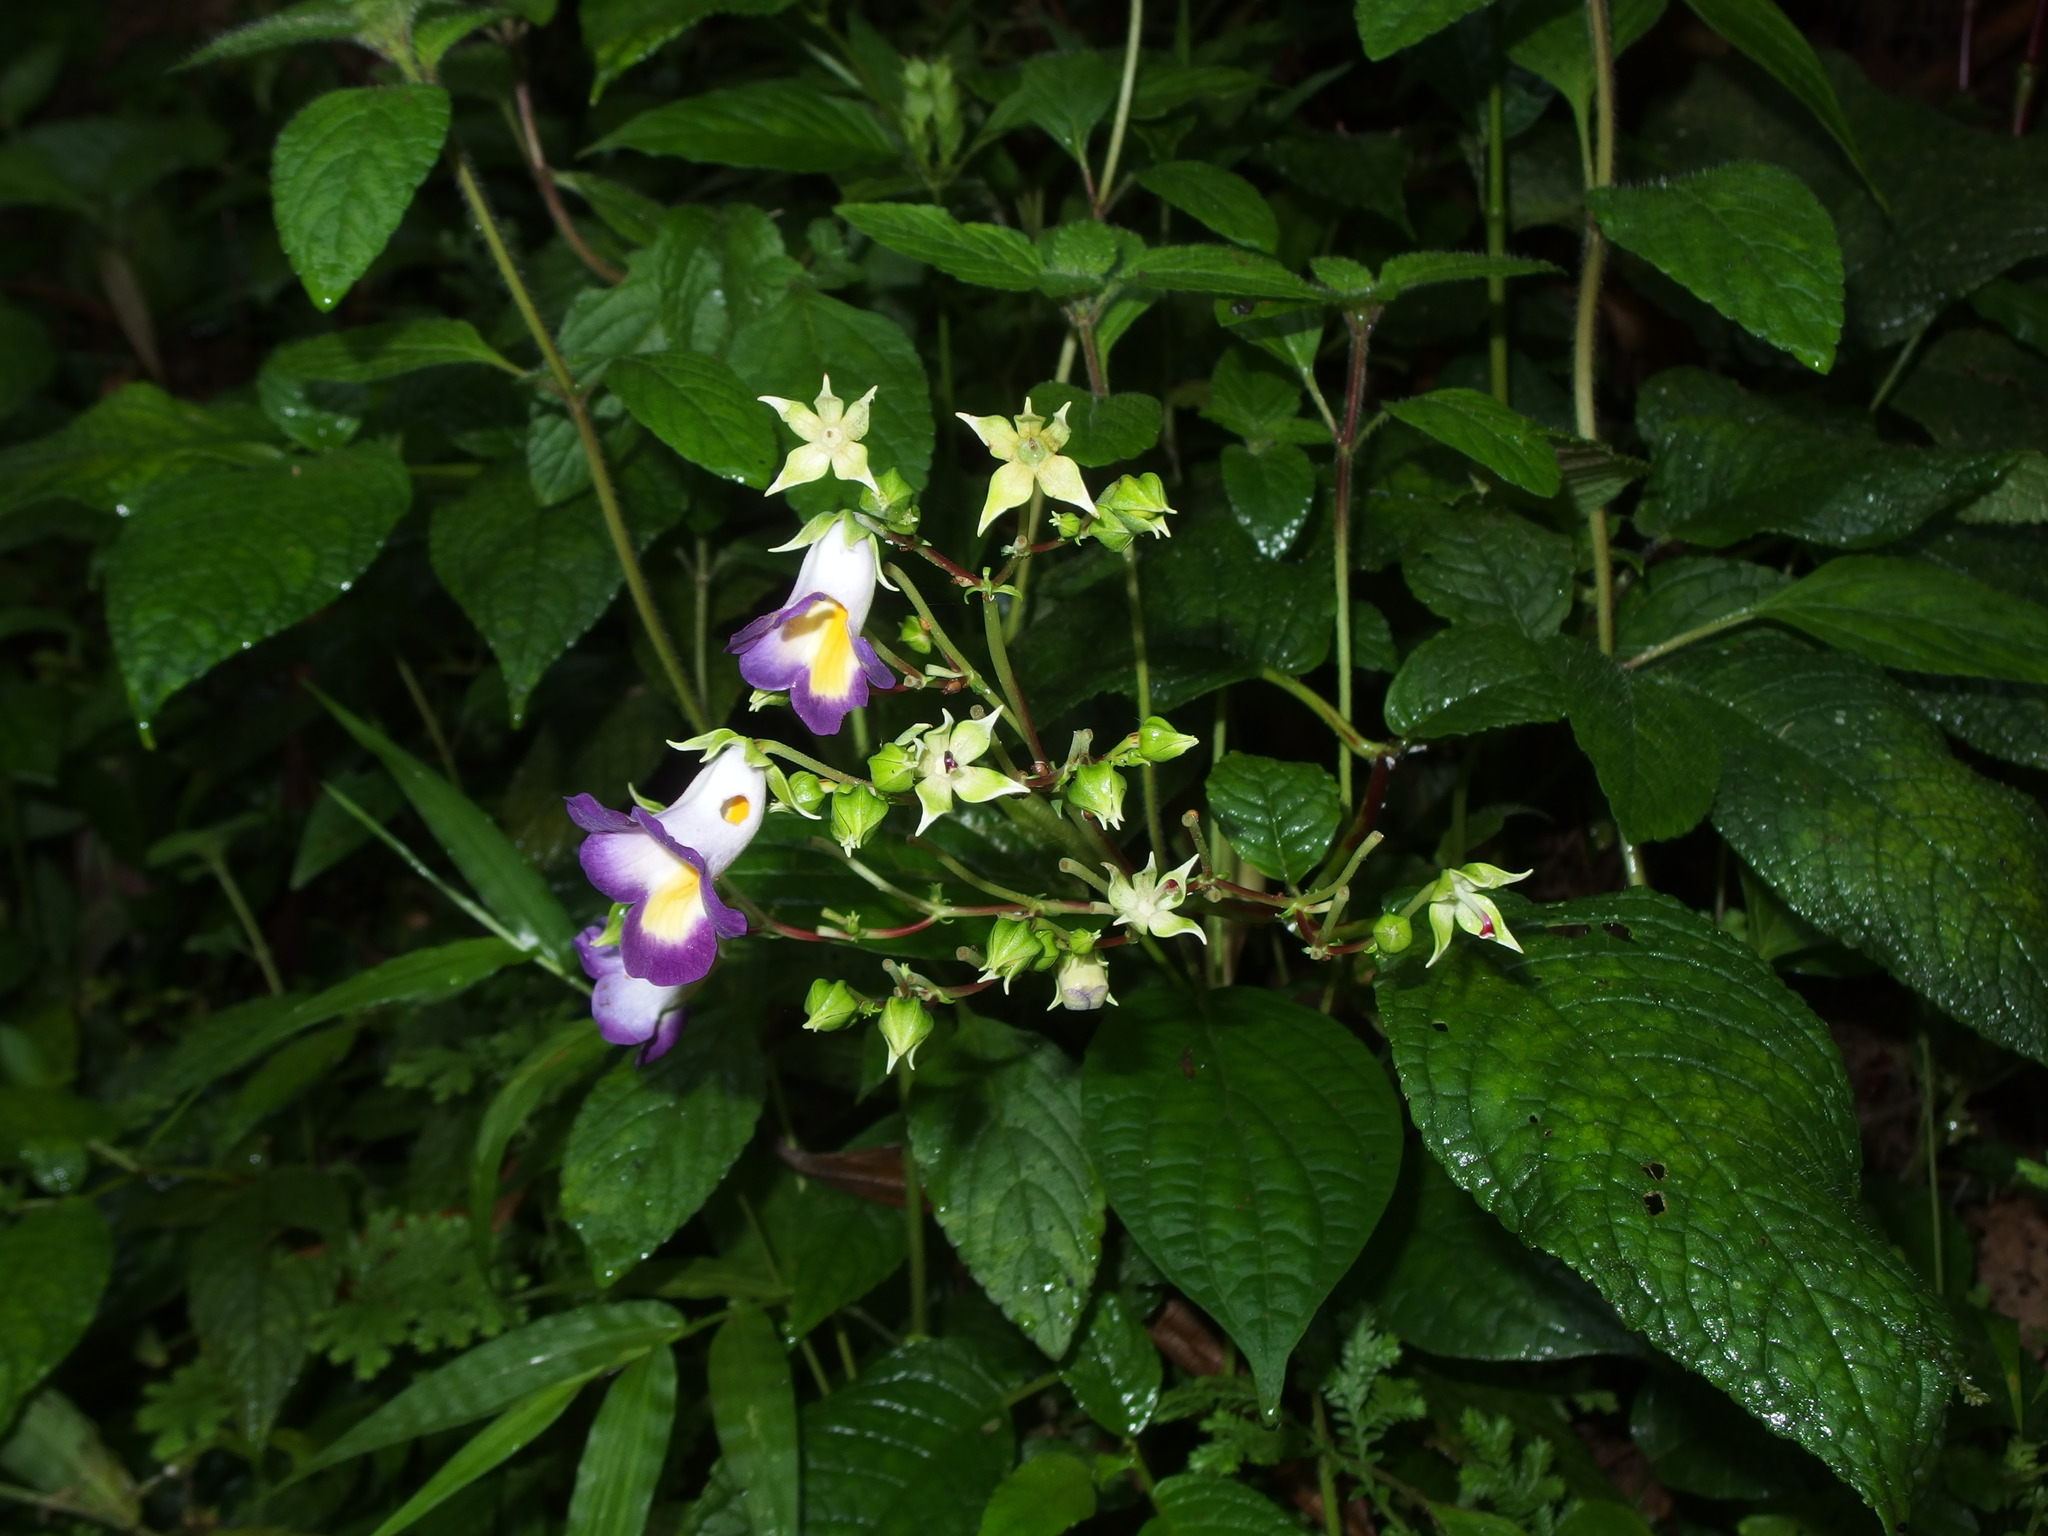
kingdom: Plantae
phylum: Tracheophyta
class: Magnoliopsida
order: Lamiales
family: Gesneriaceae
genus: Monopyle
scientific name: Monopyle ecuadorensis
